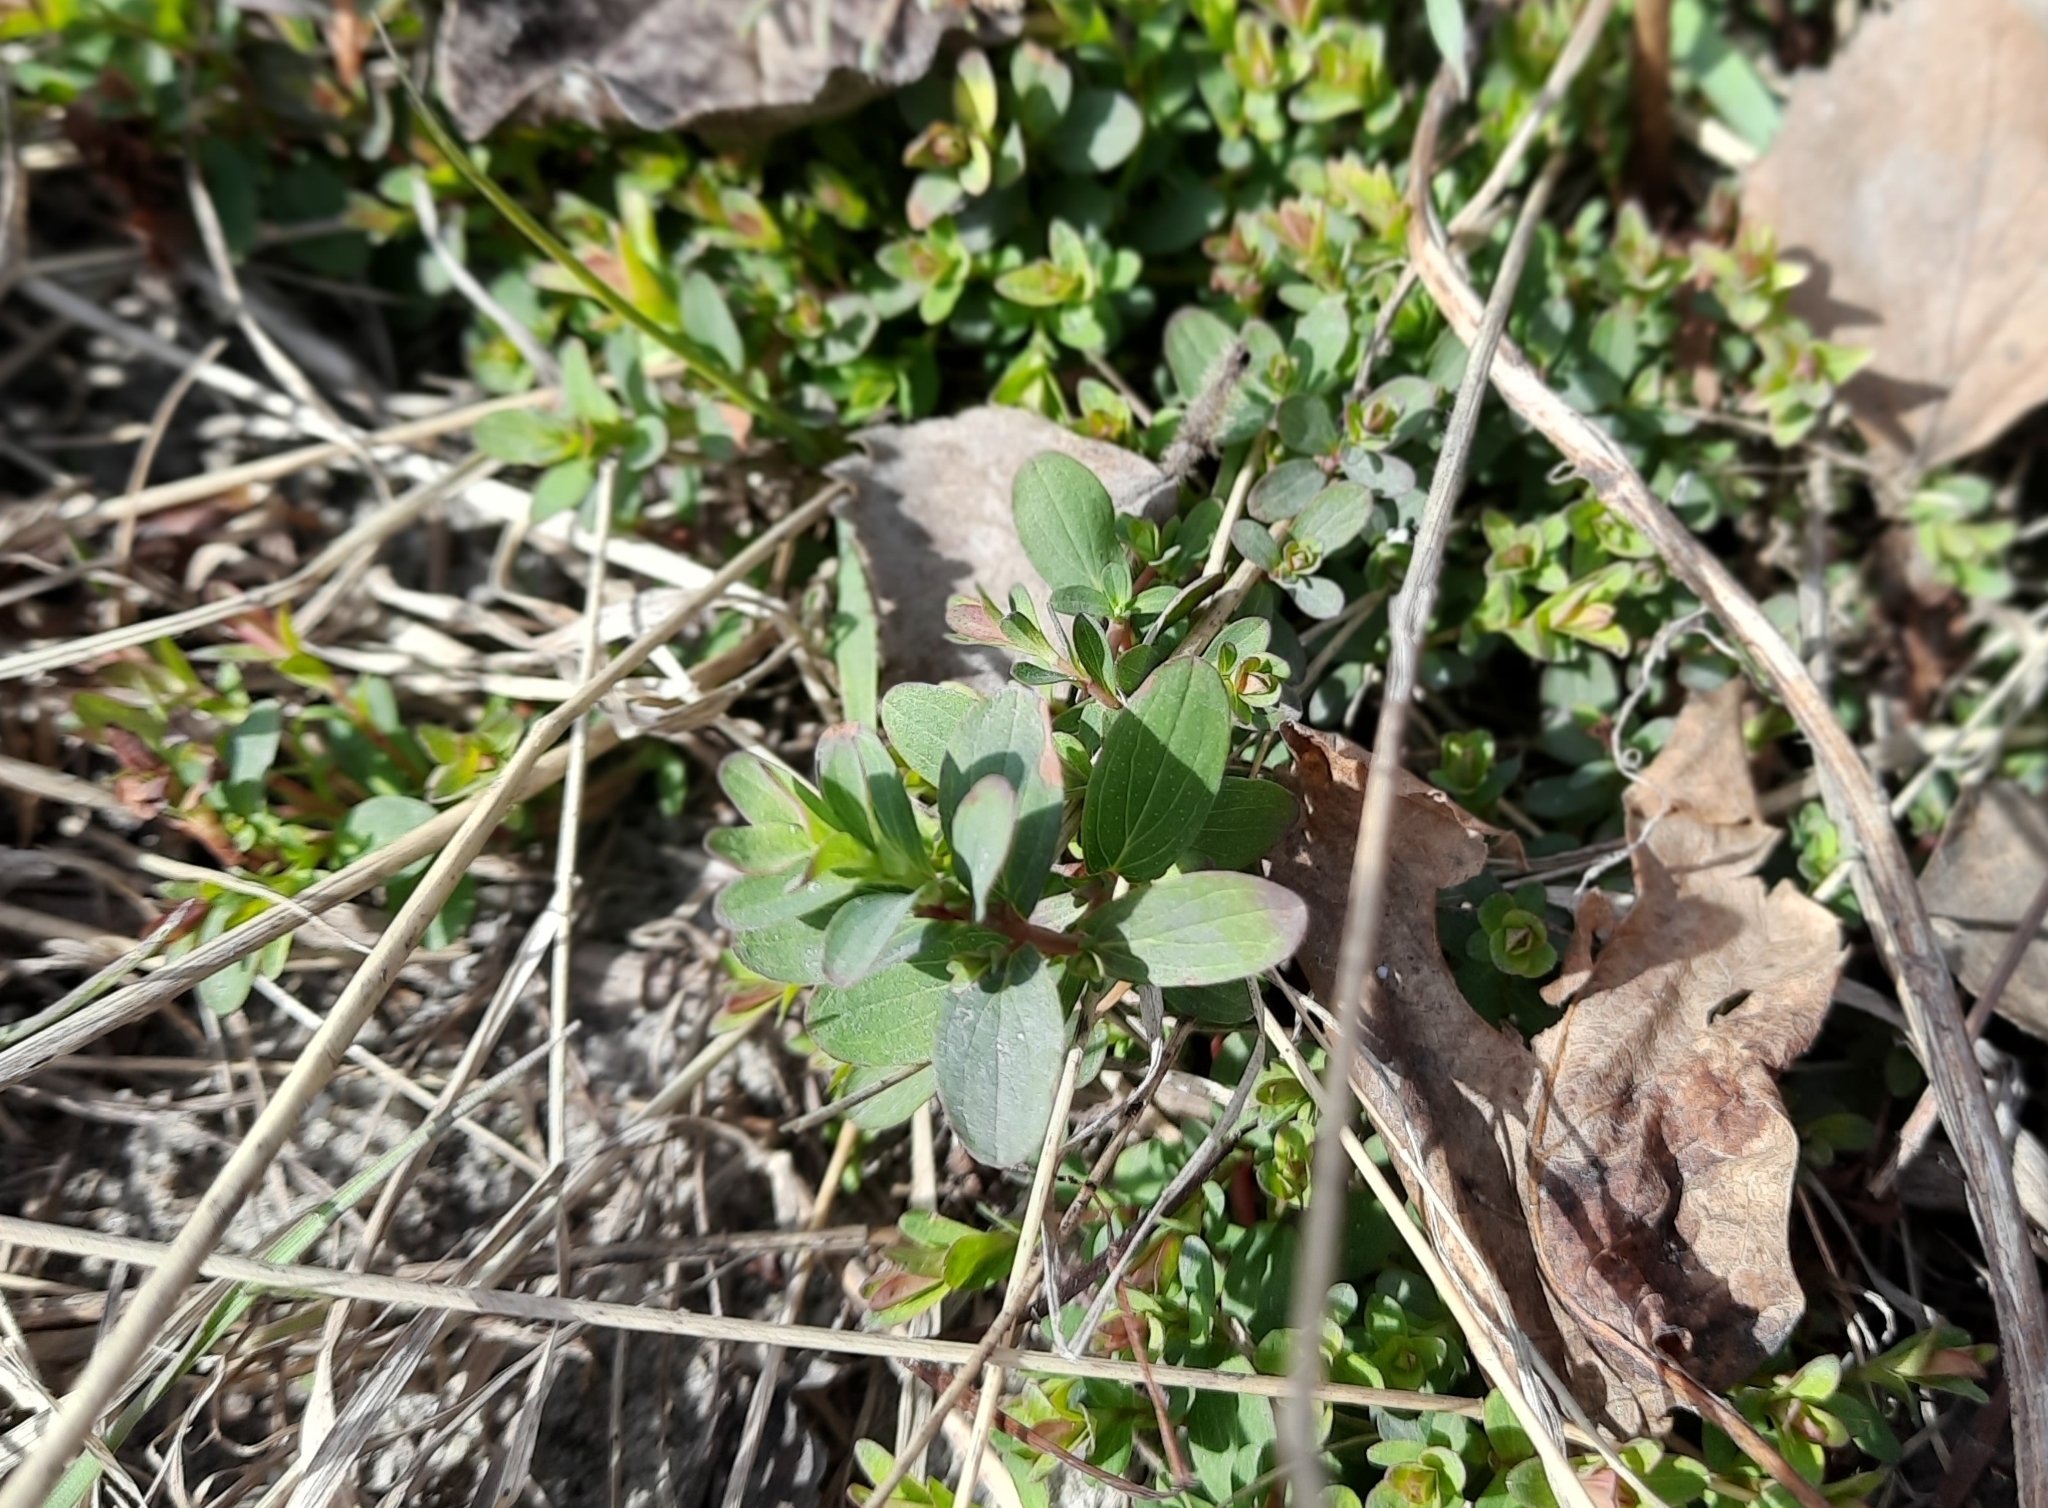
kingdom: Plantae
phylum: Tracheophyta
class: Magnoliopsida
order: Malpighiales
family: Hypericaceae
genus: Hypericum
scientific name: Hypericum perforatum
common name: Common st. johnswort
